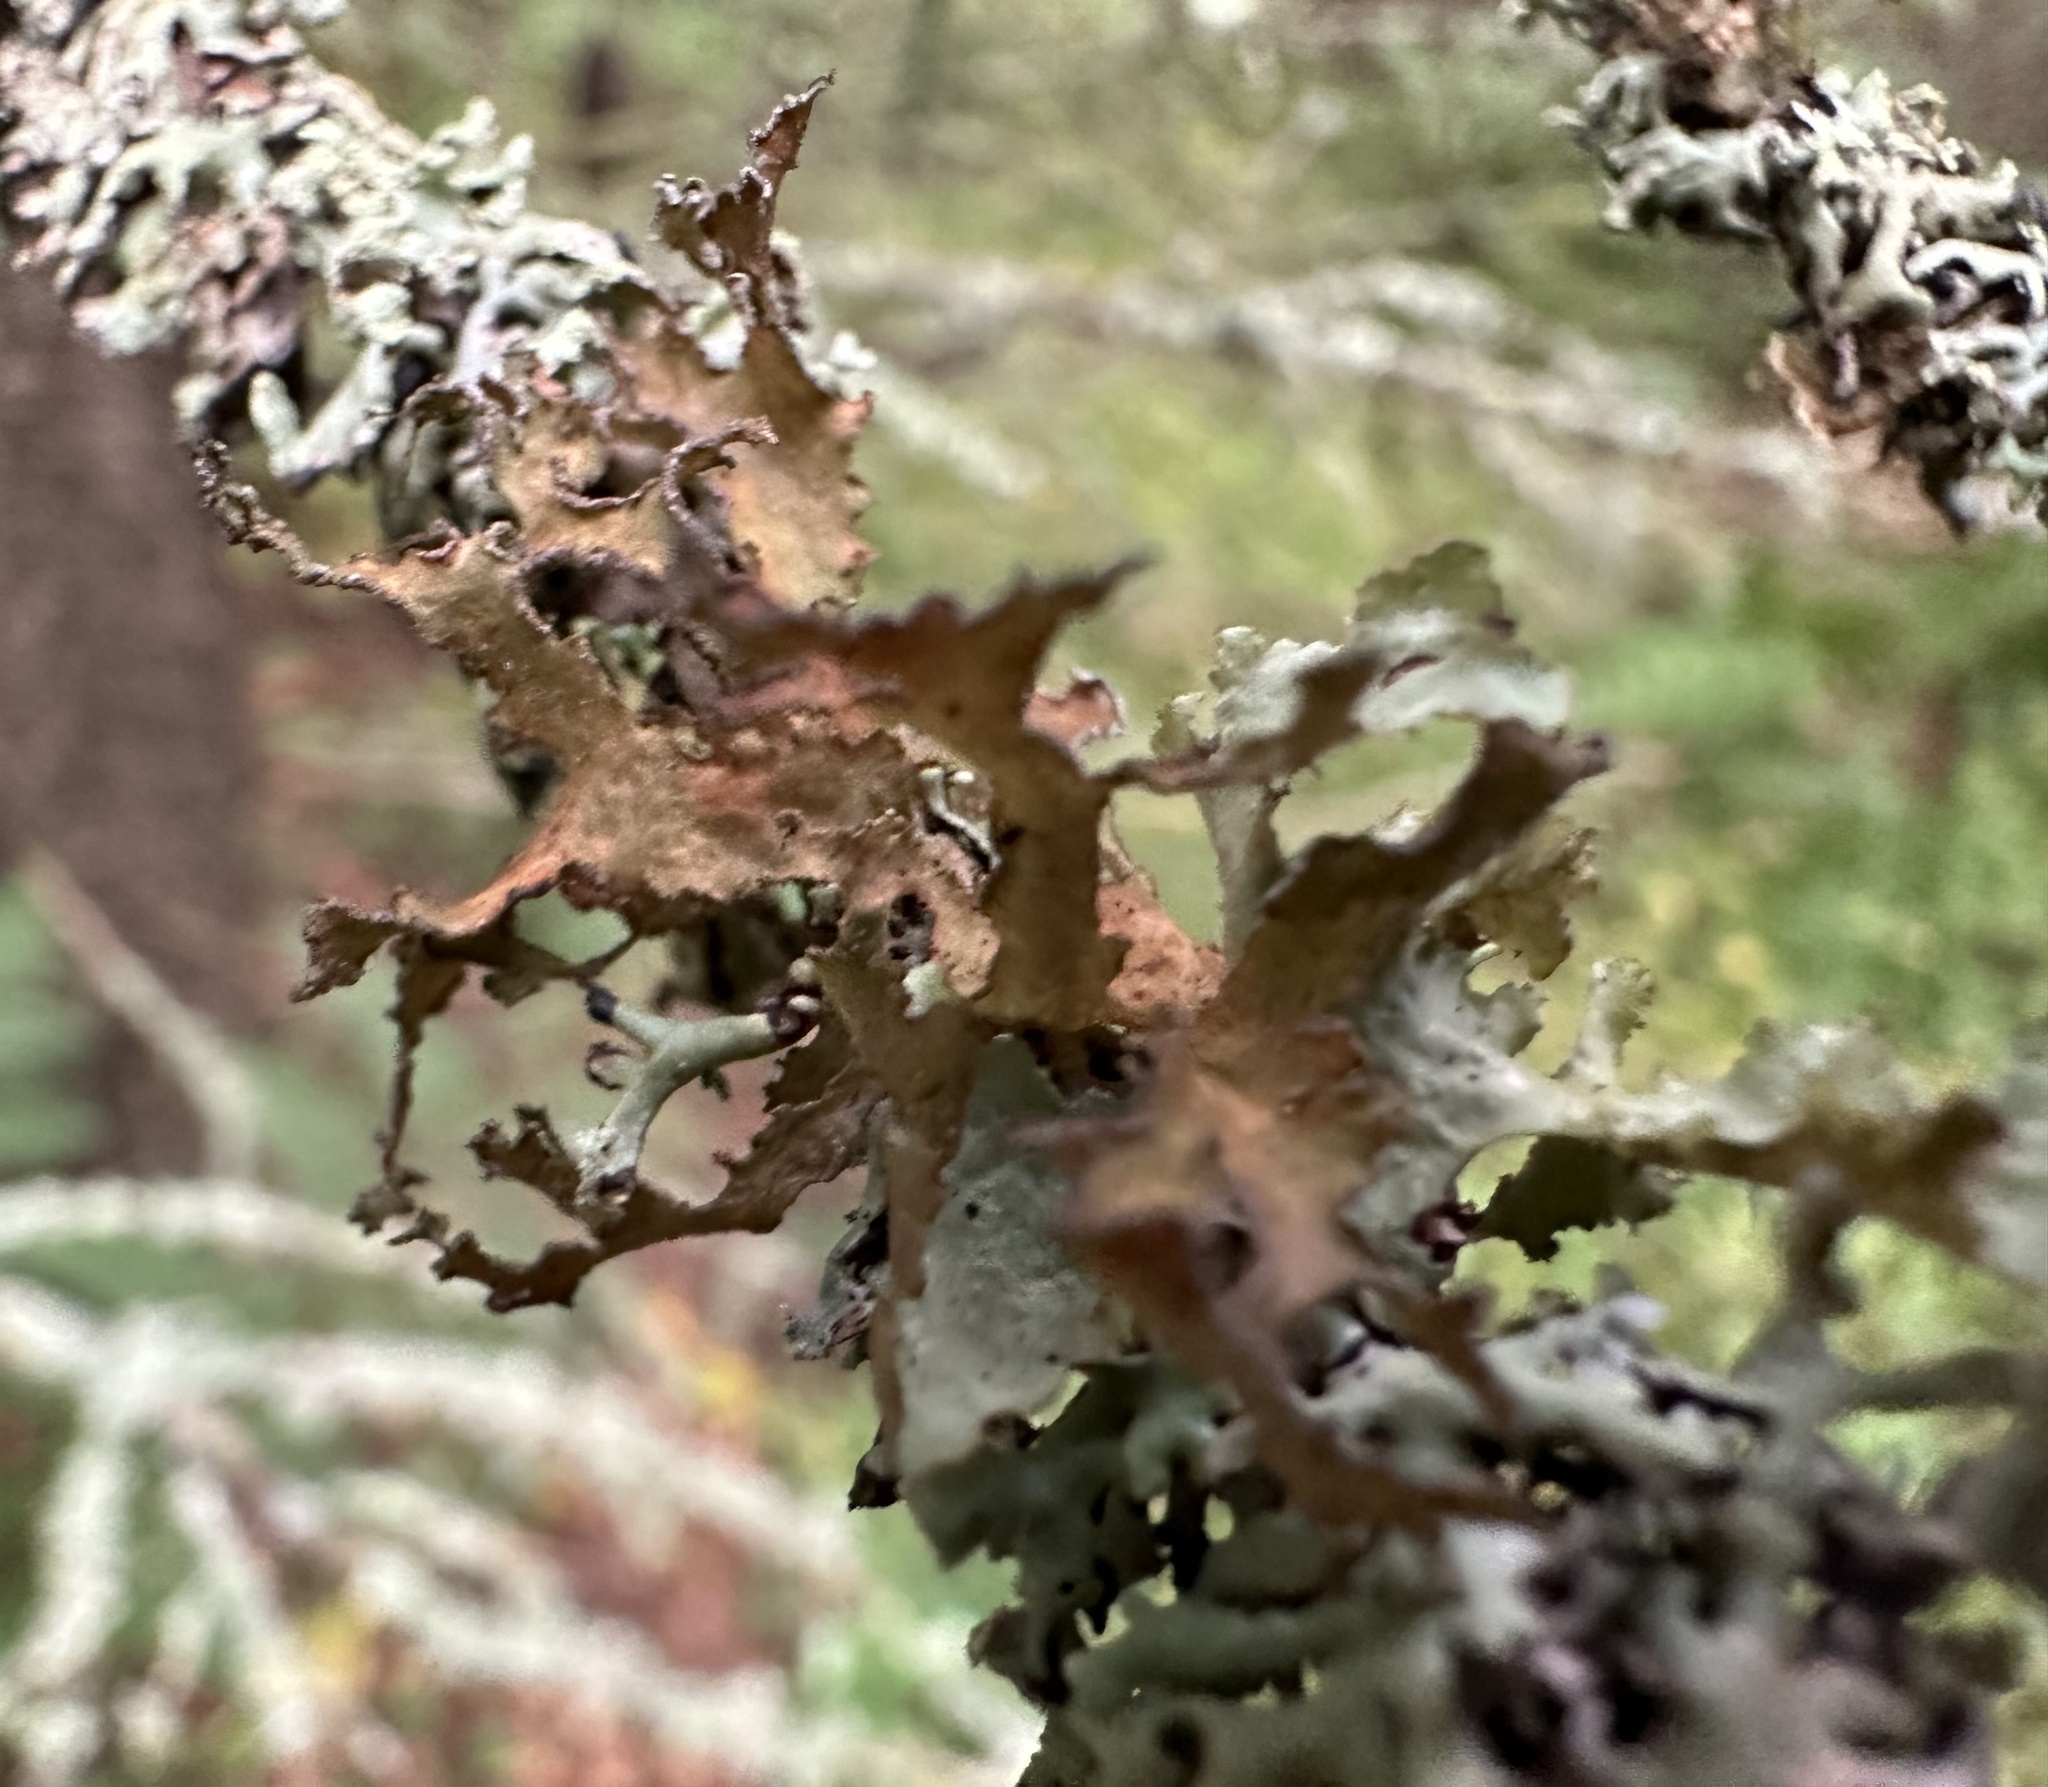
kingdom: Fungi
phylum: Ascomycota
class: Lecanoromycetes
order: Lecanorales
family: Parmeliaceae
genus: Nephromopsis
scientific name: Nephromopsis chlorophylla
